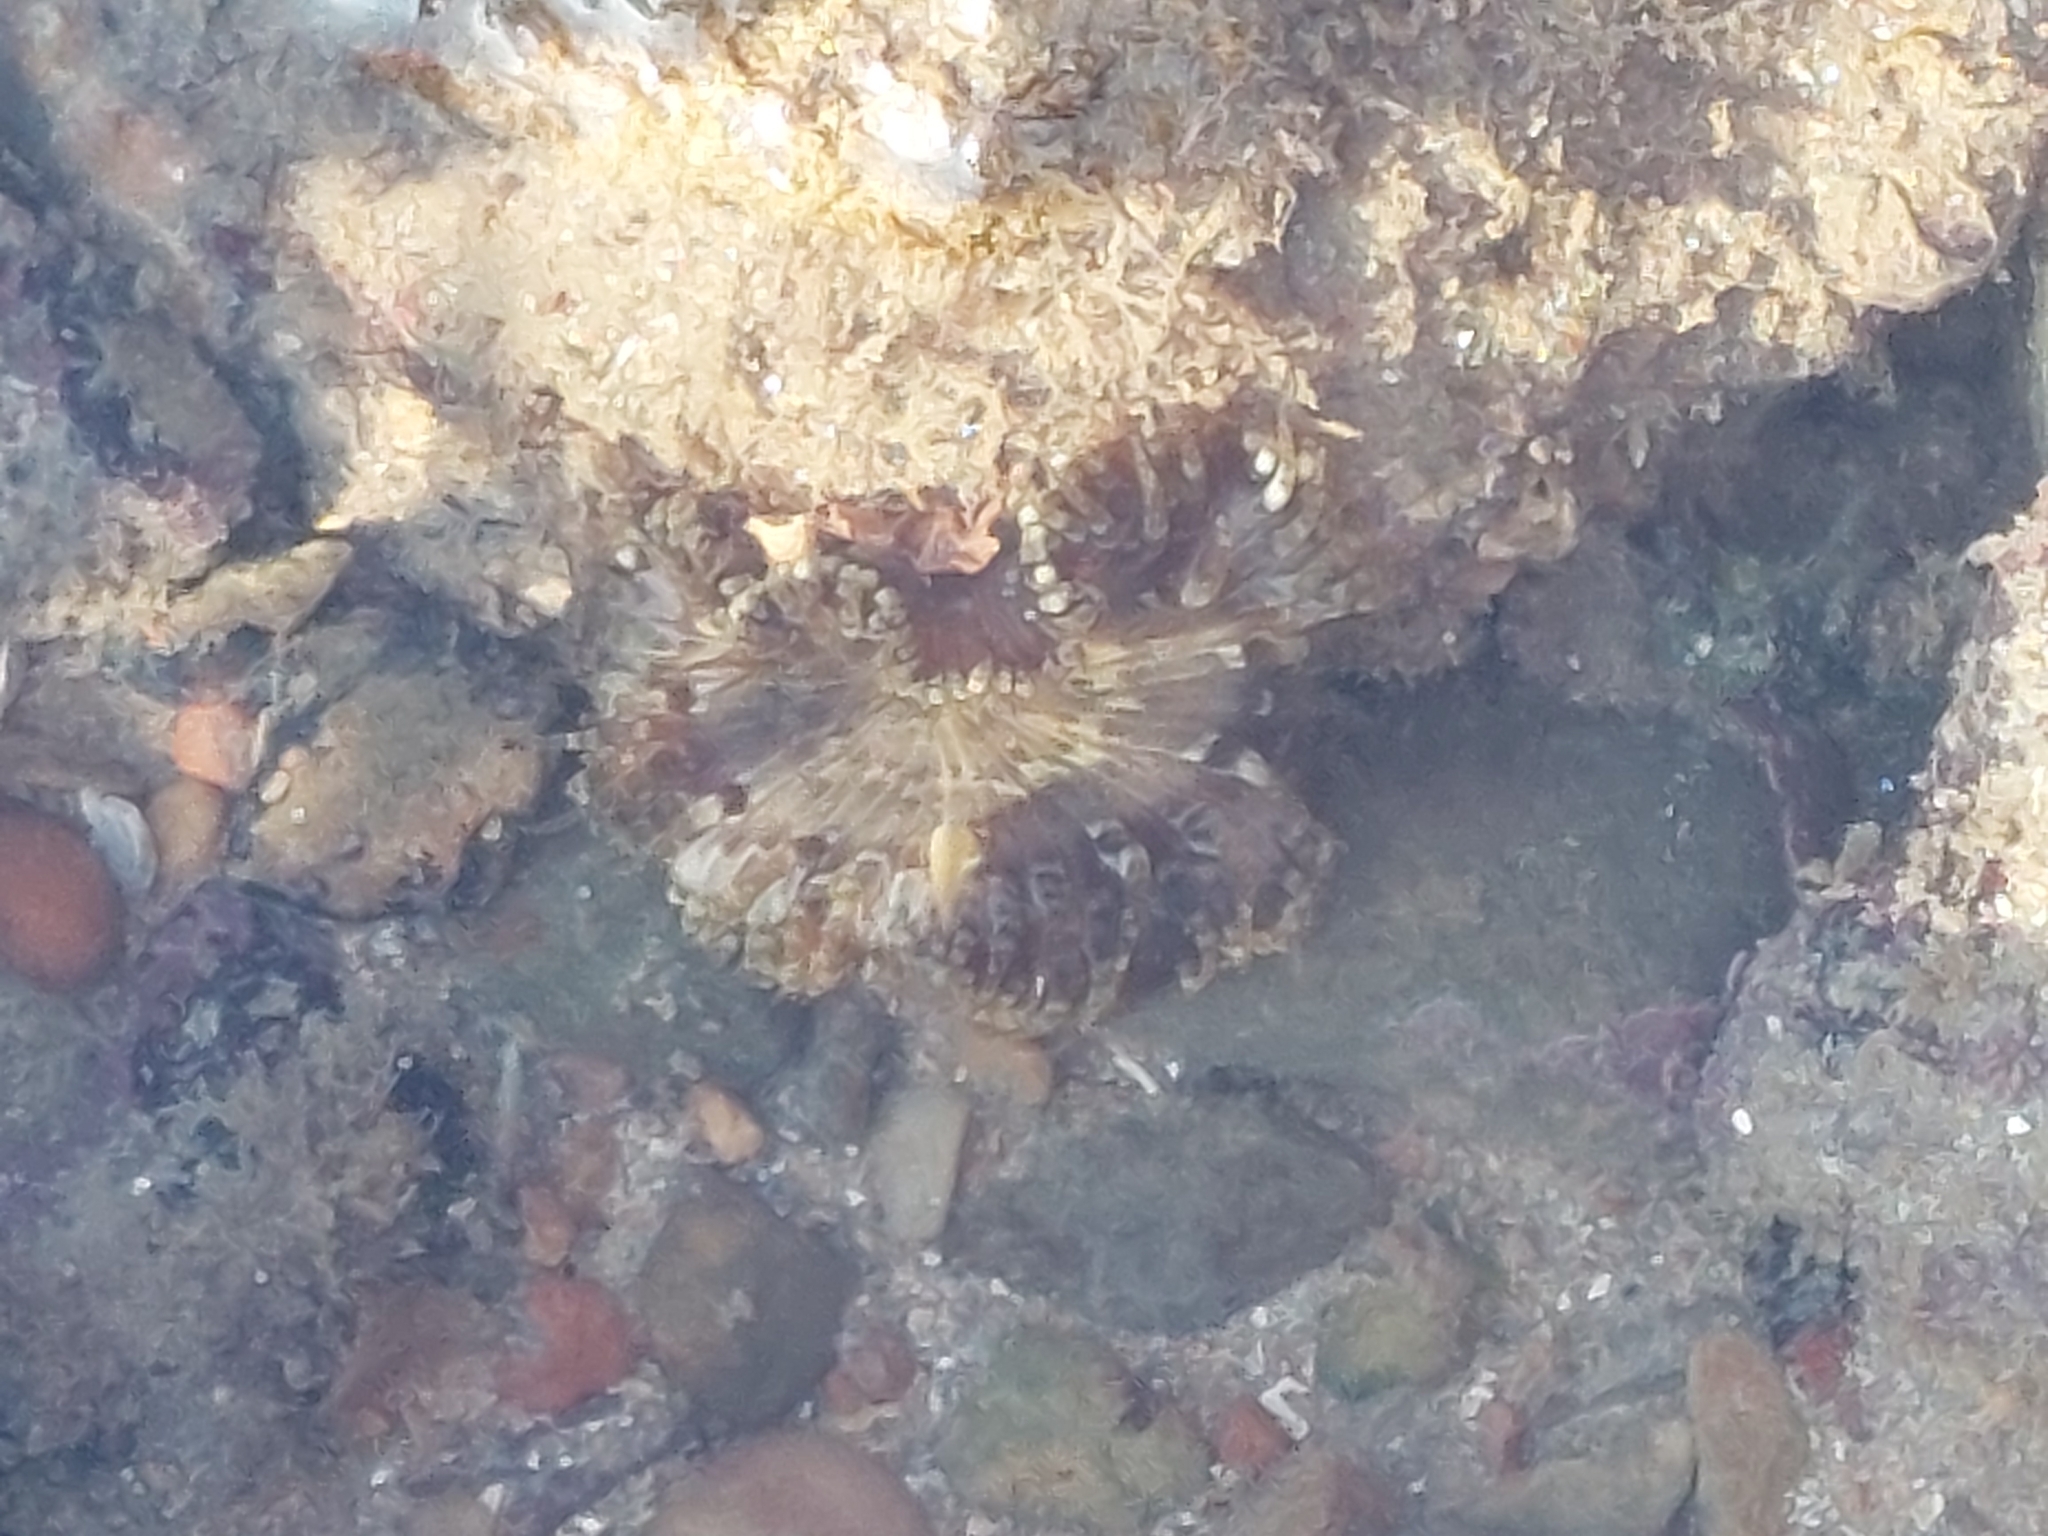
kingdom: Animalia
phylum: Cnidaria
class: Anthozoa
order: Actiniaria
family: Sagartiidae
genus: Cereus
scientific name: Cereus pedunculatus
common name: Daisy anemone
